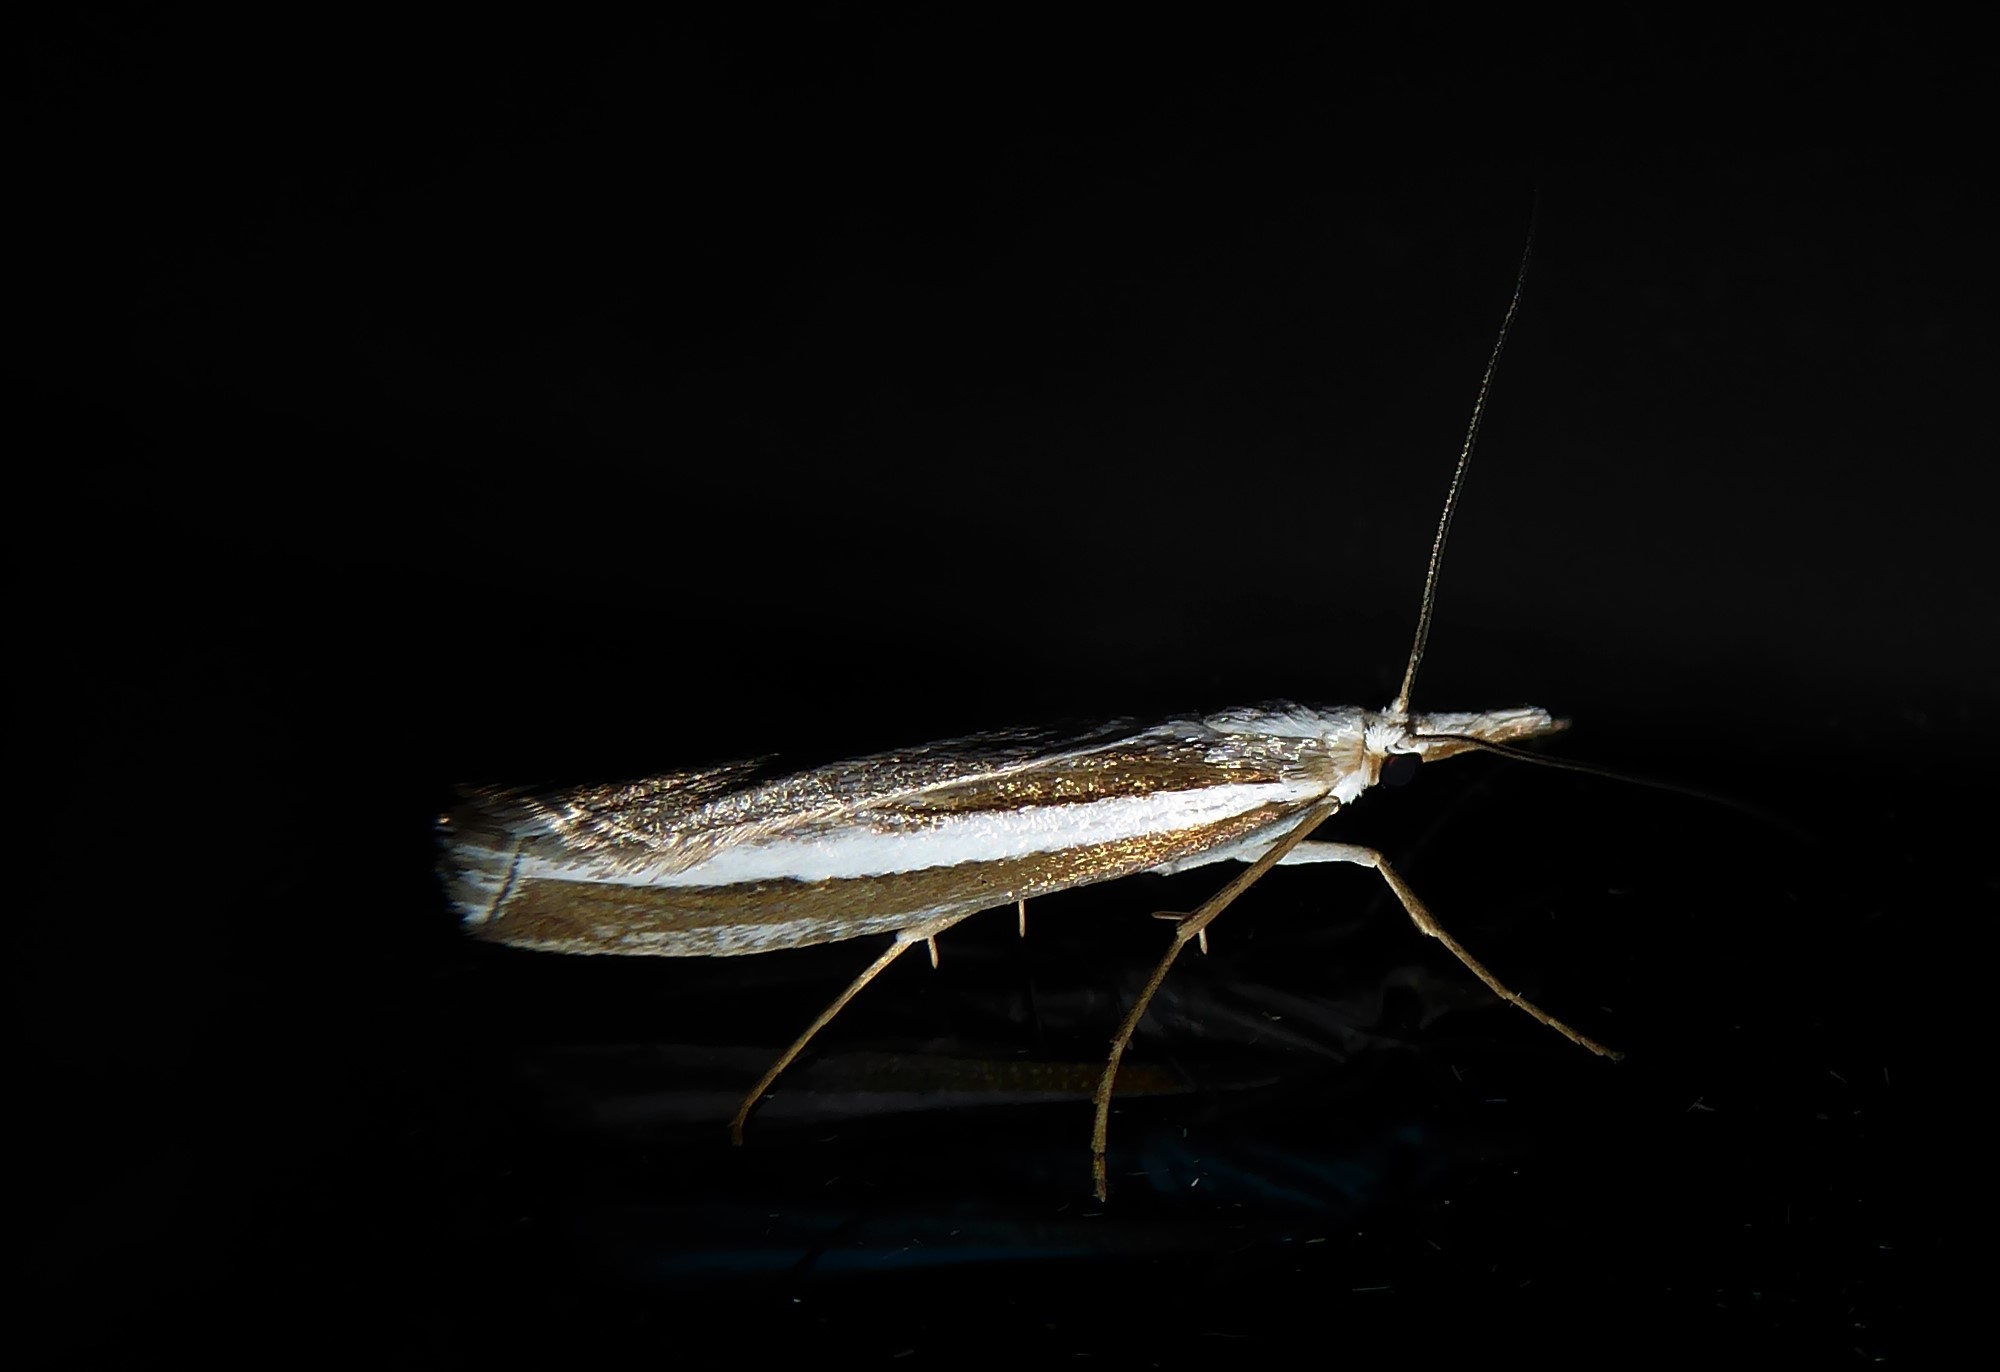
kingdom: Animalia
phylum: Arthropoda
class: Insecta
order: Lepidoptera
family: Crambidae
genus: Orocrambus
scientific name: Orocrambus vittellus
